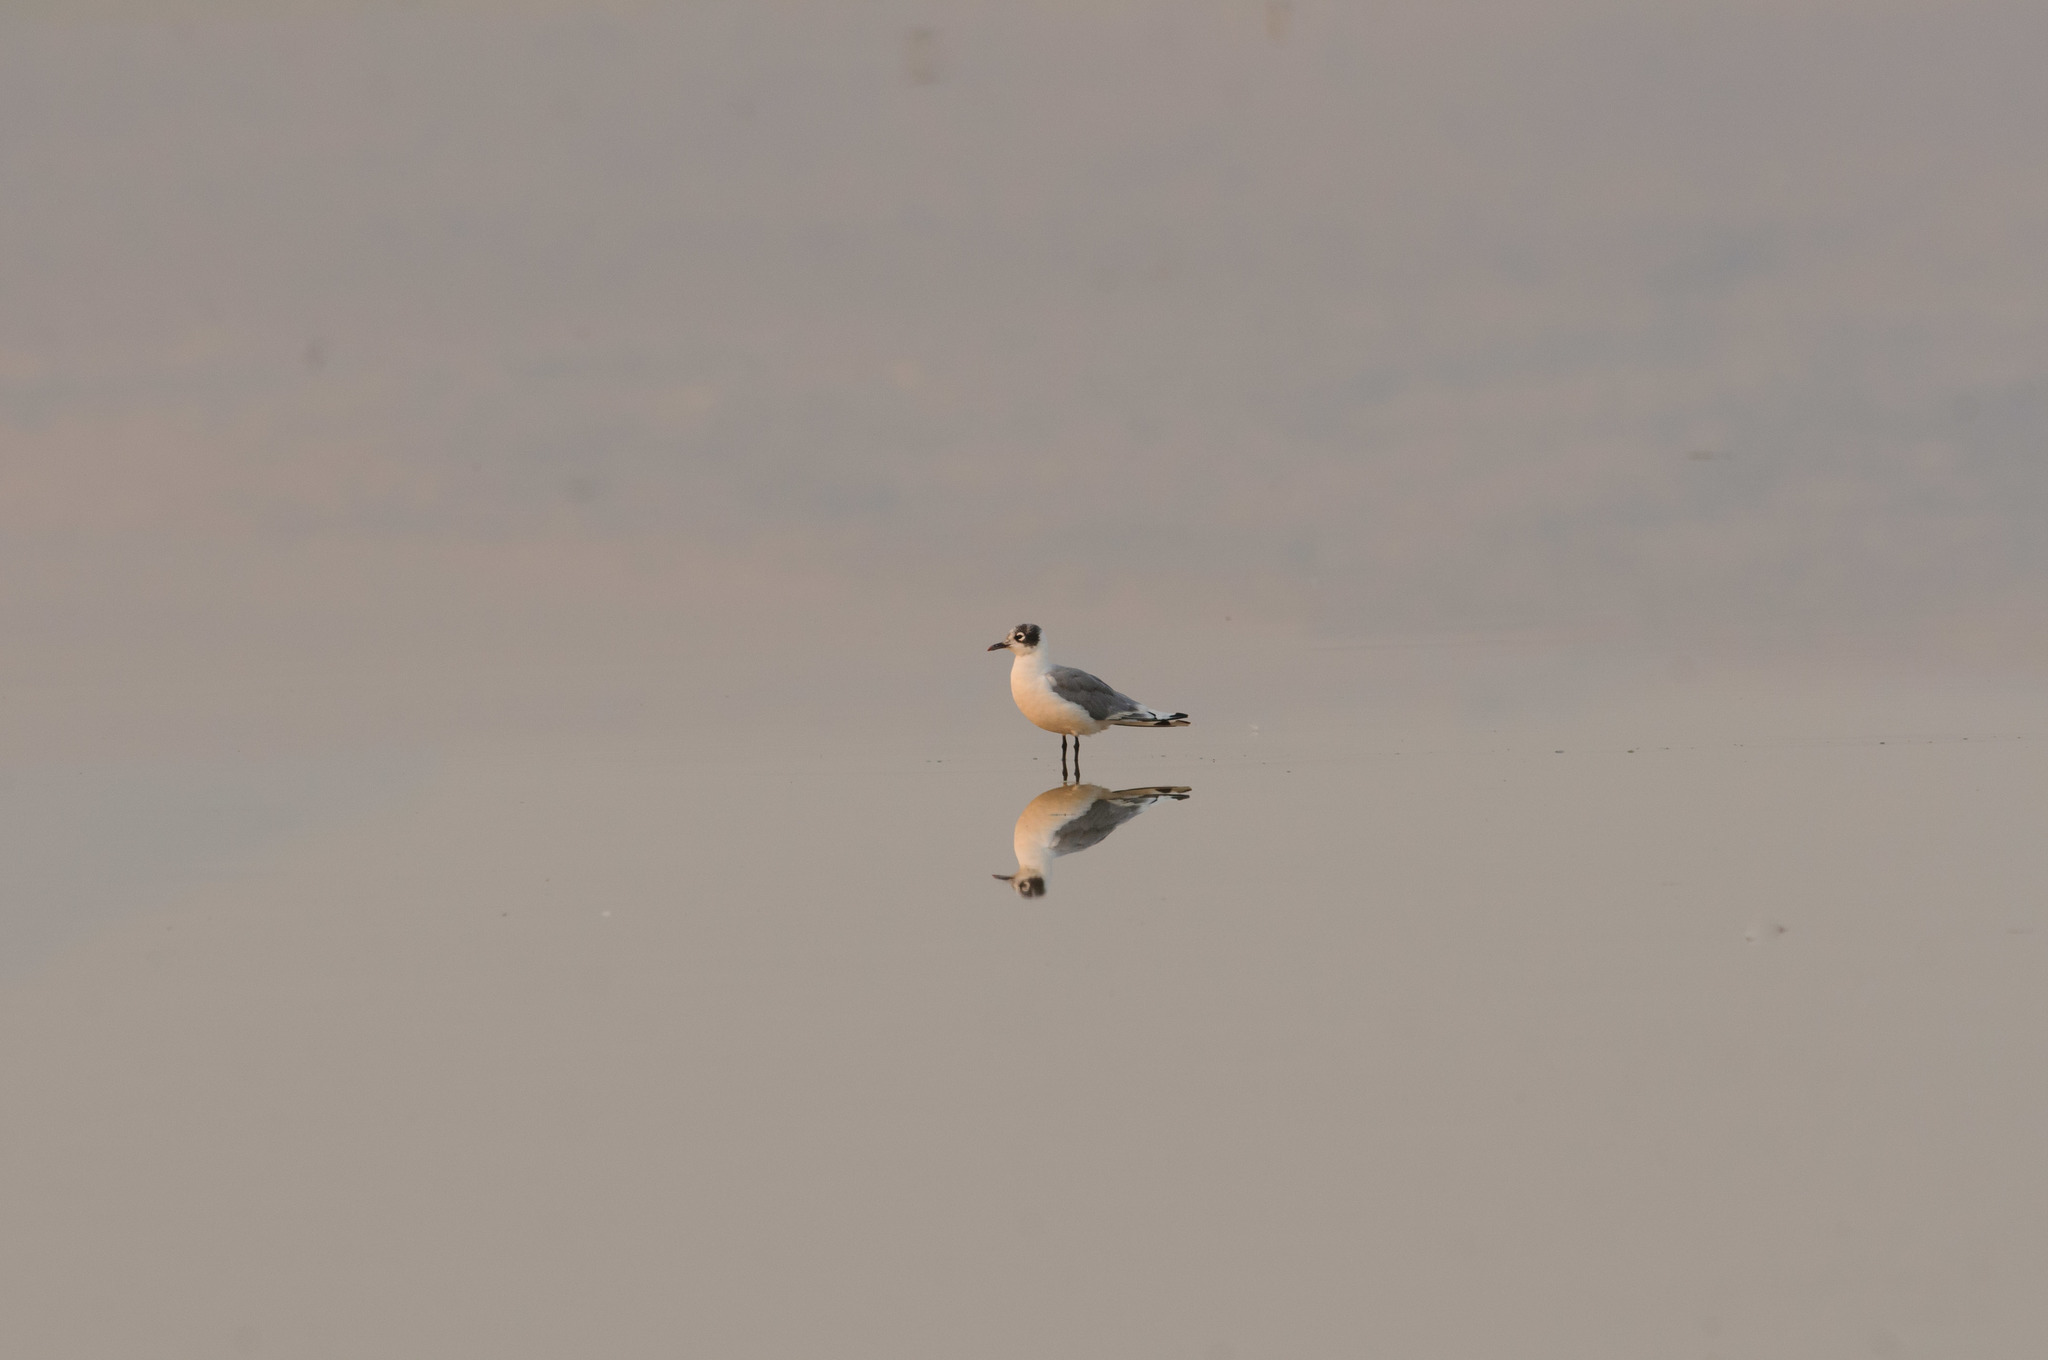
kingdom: Animalia
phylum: Chordata
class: Aves
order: Charadriiformes
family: Laridae
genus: Leucophaeus
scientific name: Leucophaeus pipixcan
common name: Franklin's gull
